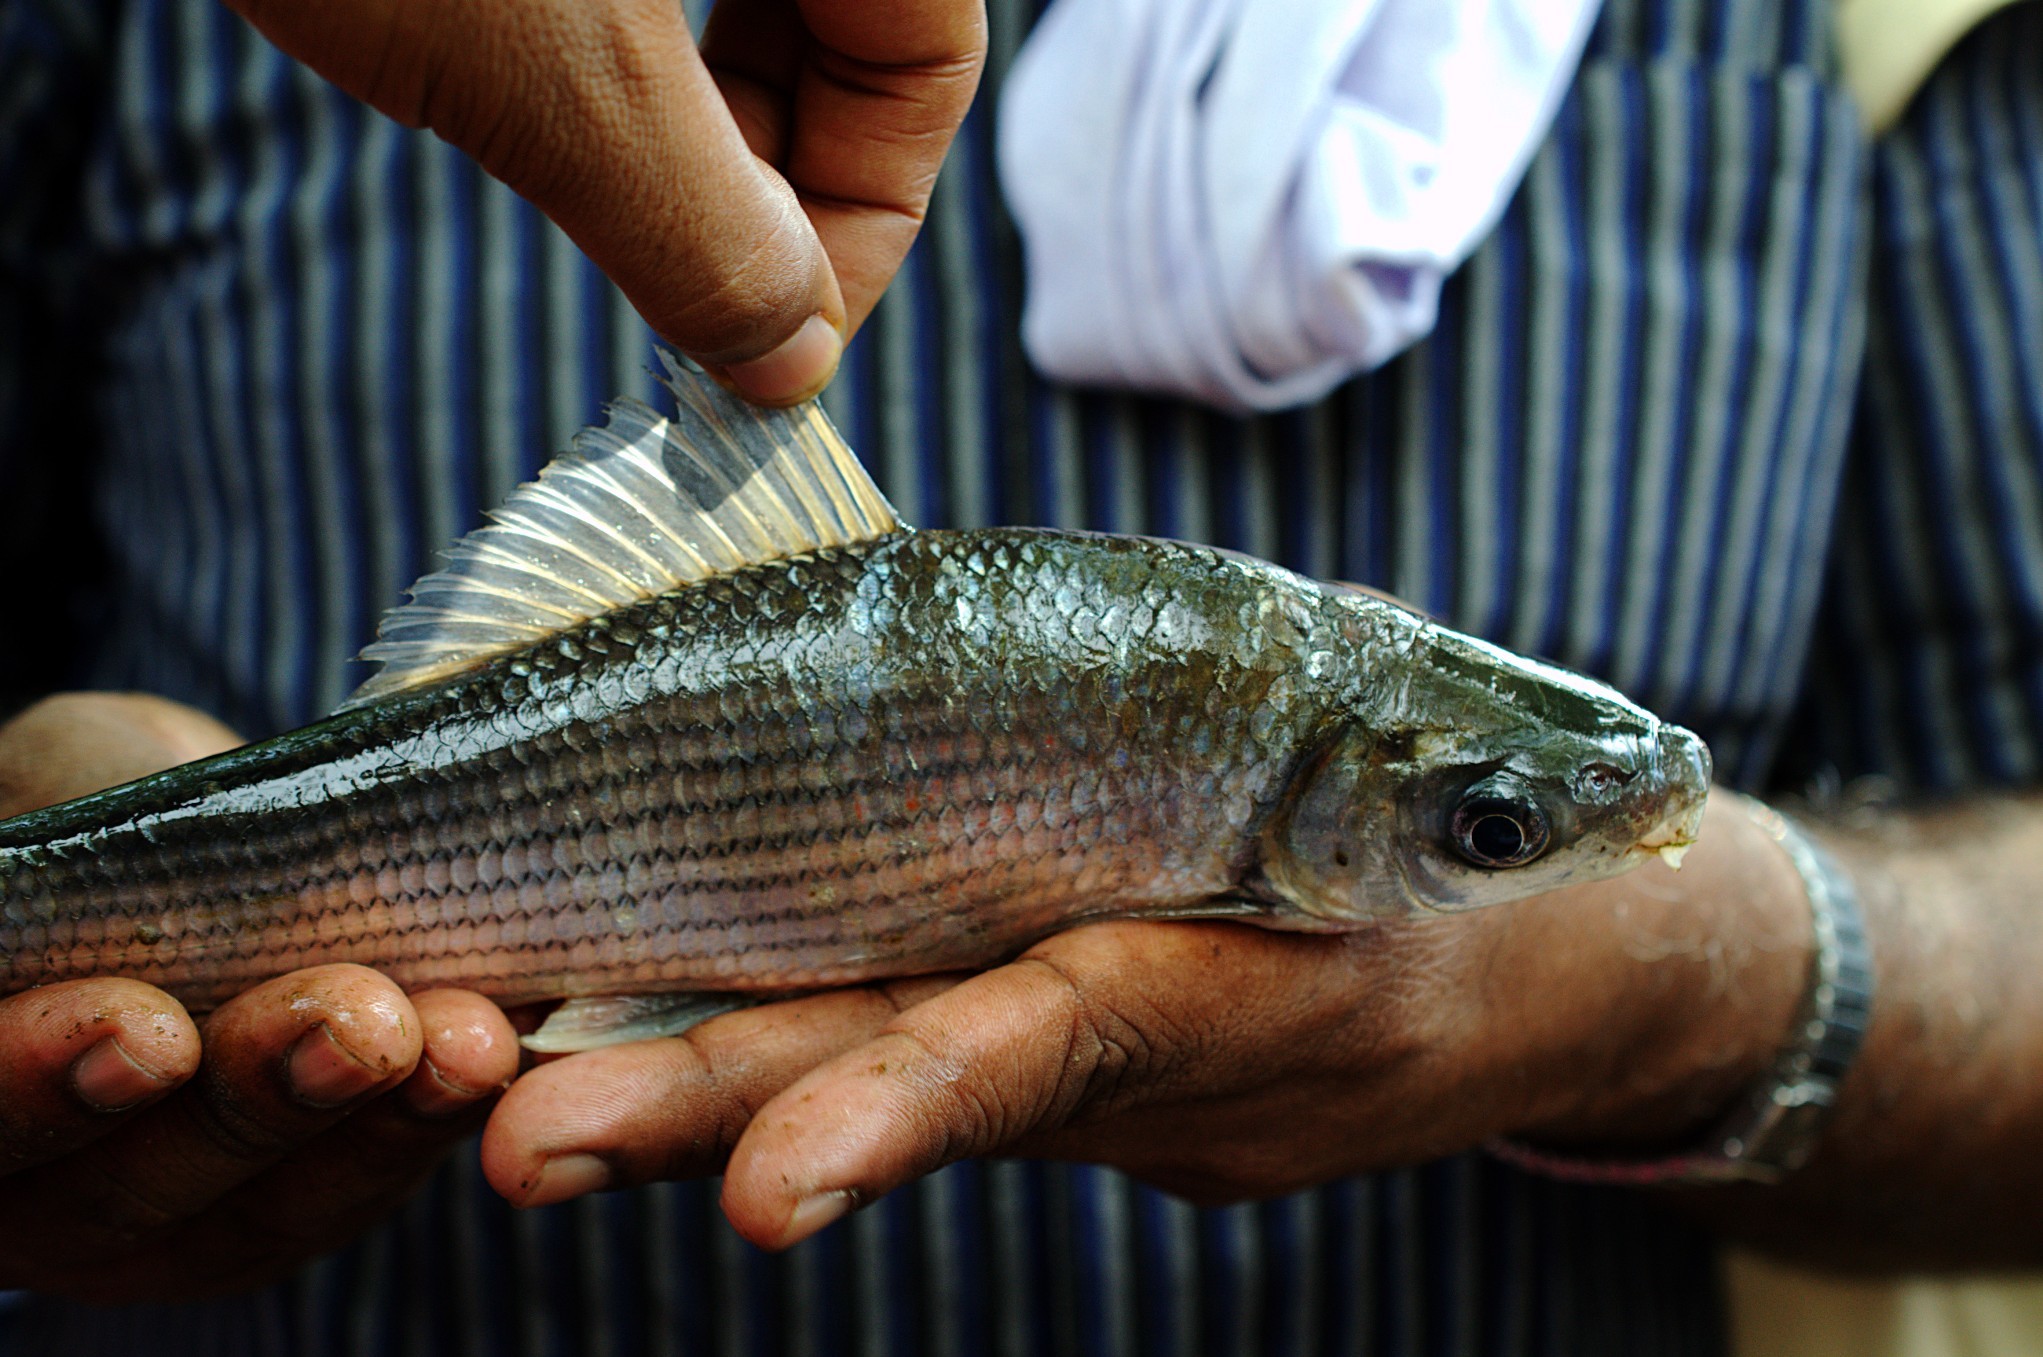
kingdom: Animalia
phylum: Chordata
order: Cypriniformes
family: Cyprinidae
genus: Labeo
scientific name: Labeo dussumieri
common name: Malabar labeo
